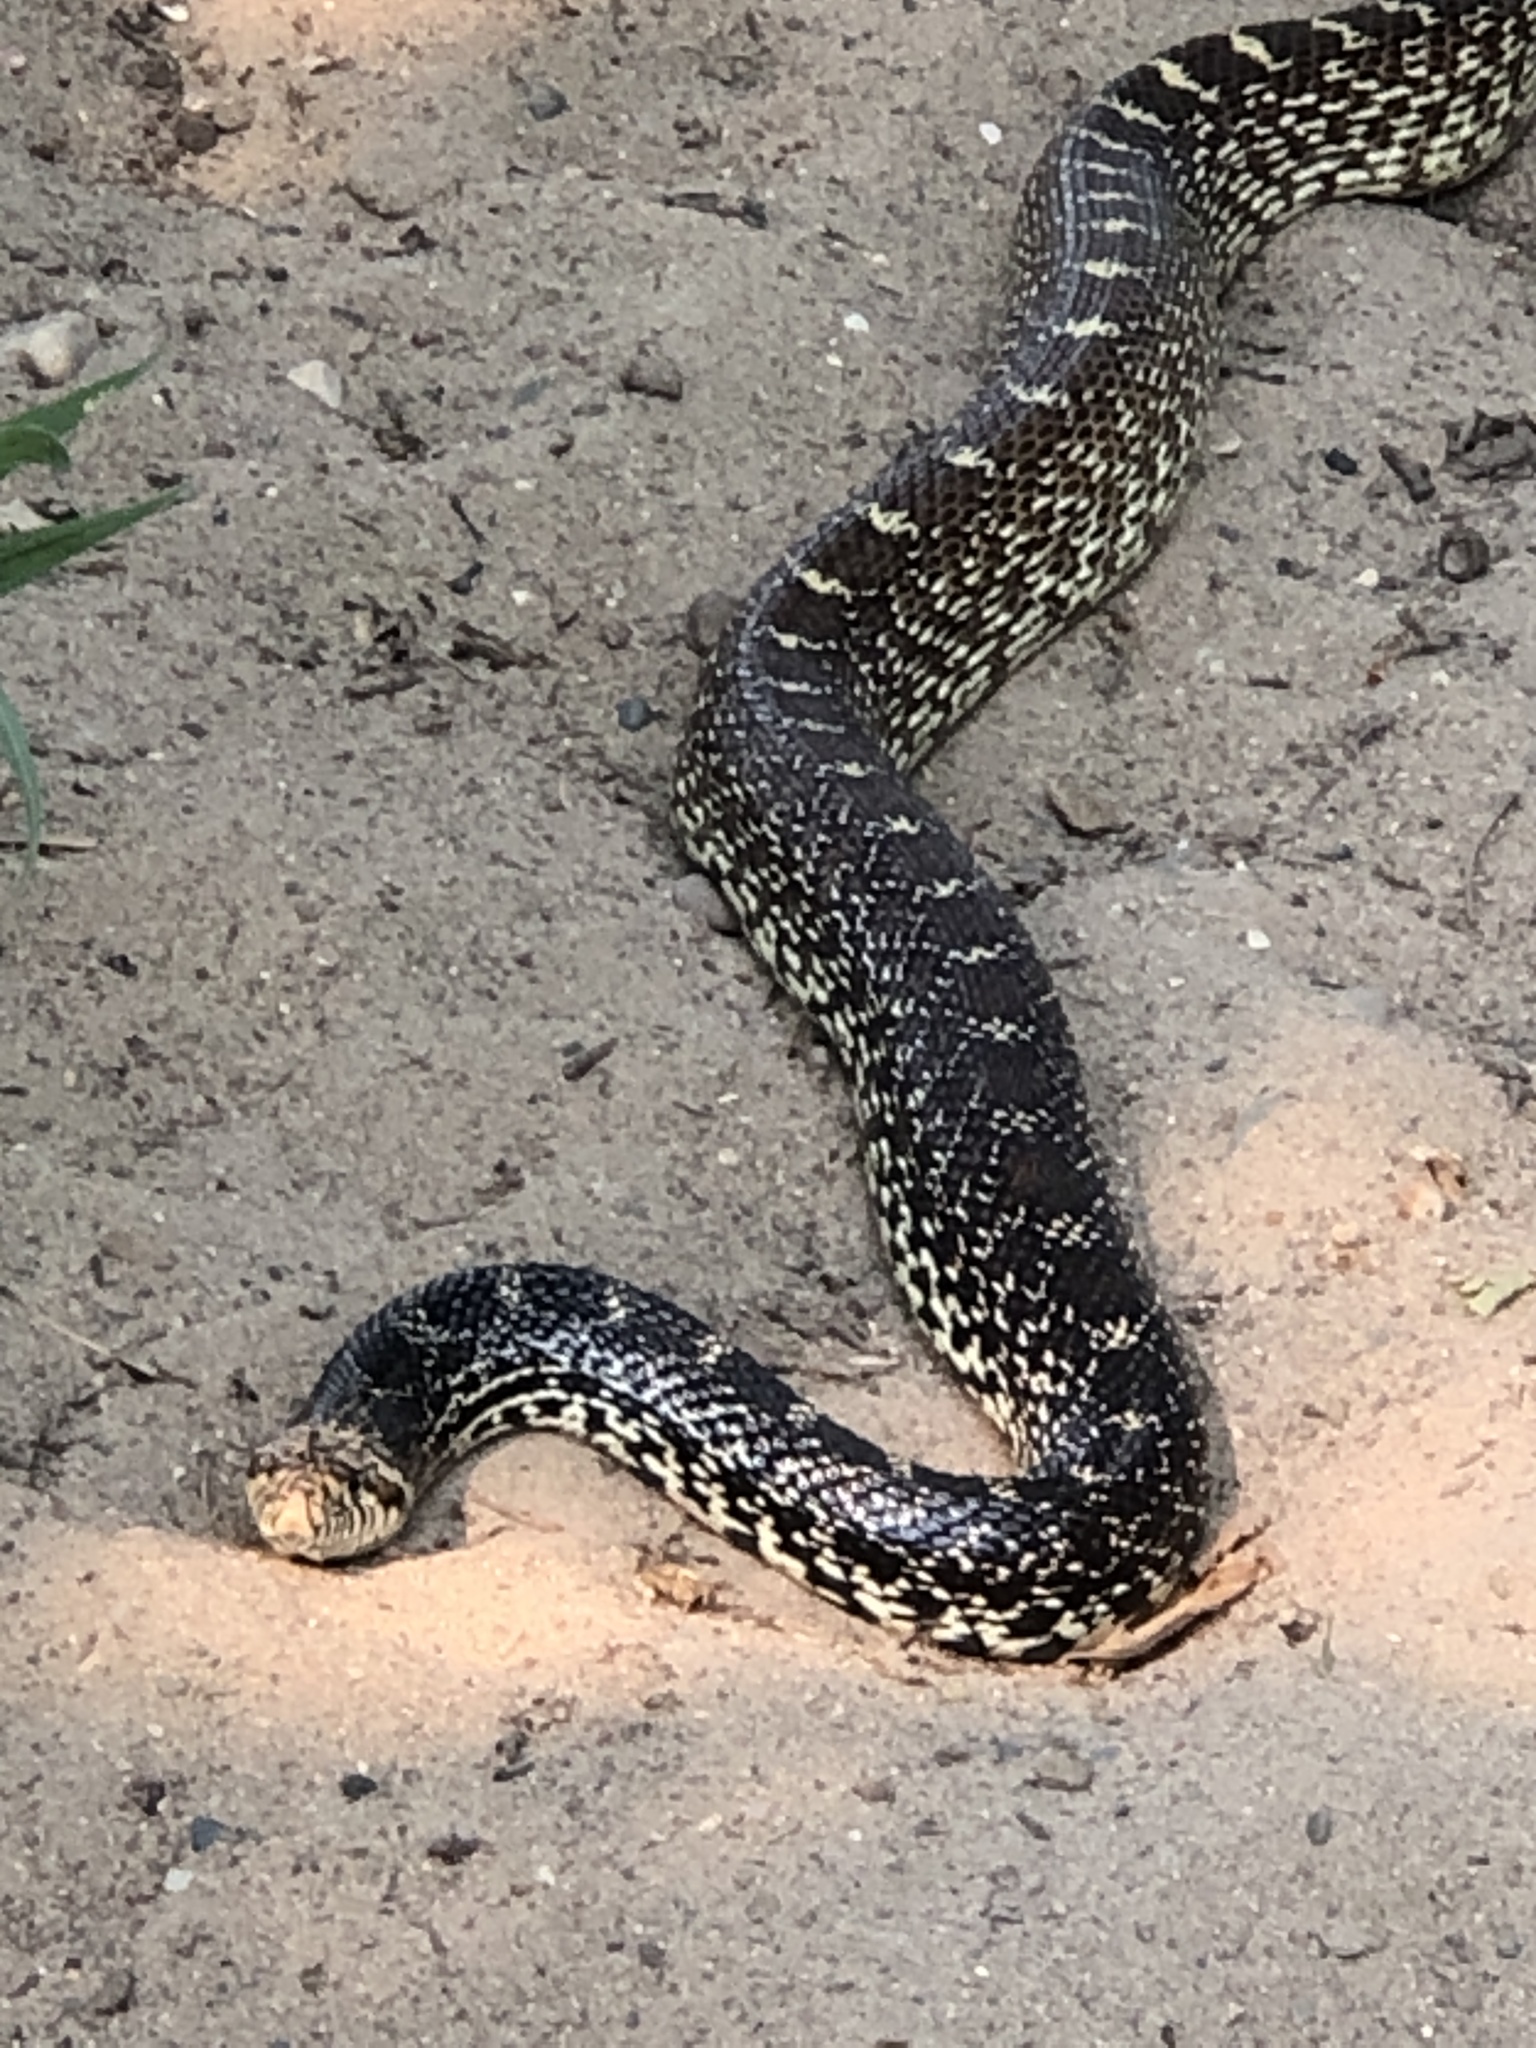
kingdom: Animalia
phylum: Chordata
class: Squamata
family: Colubridae
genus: Pituophis
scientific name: Pituophis catenifer
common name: Gopher snake
